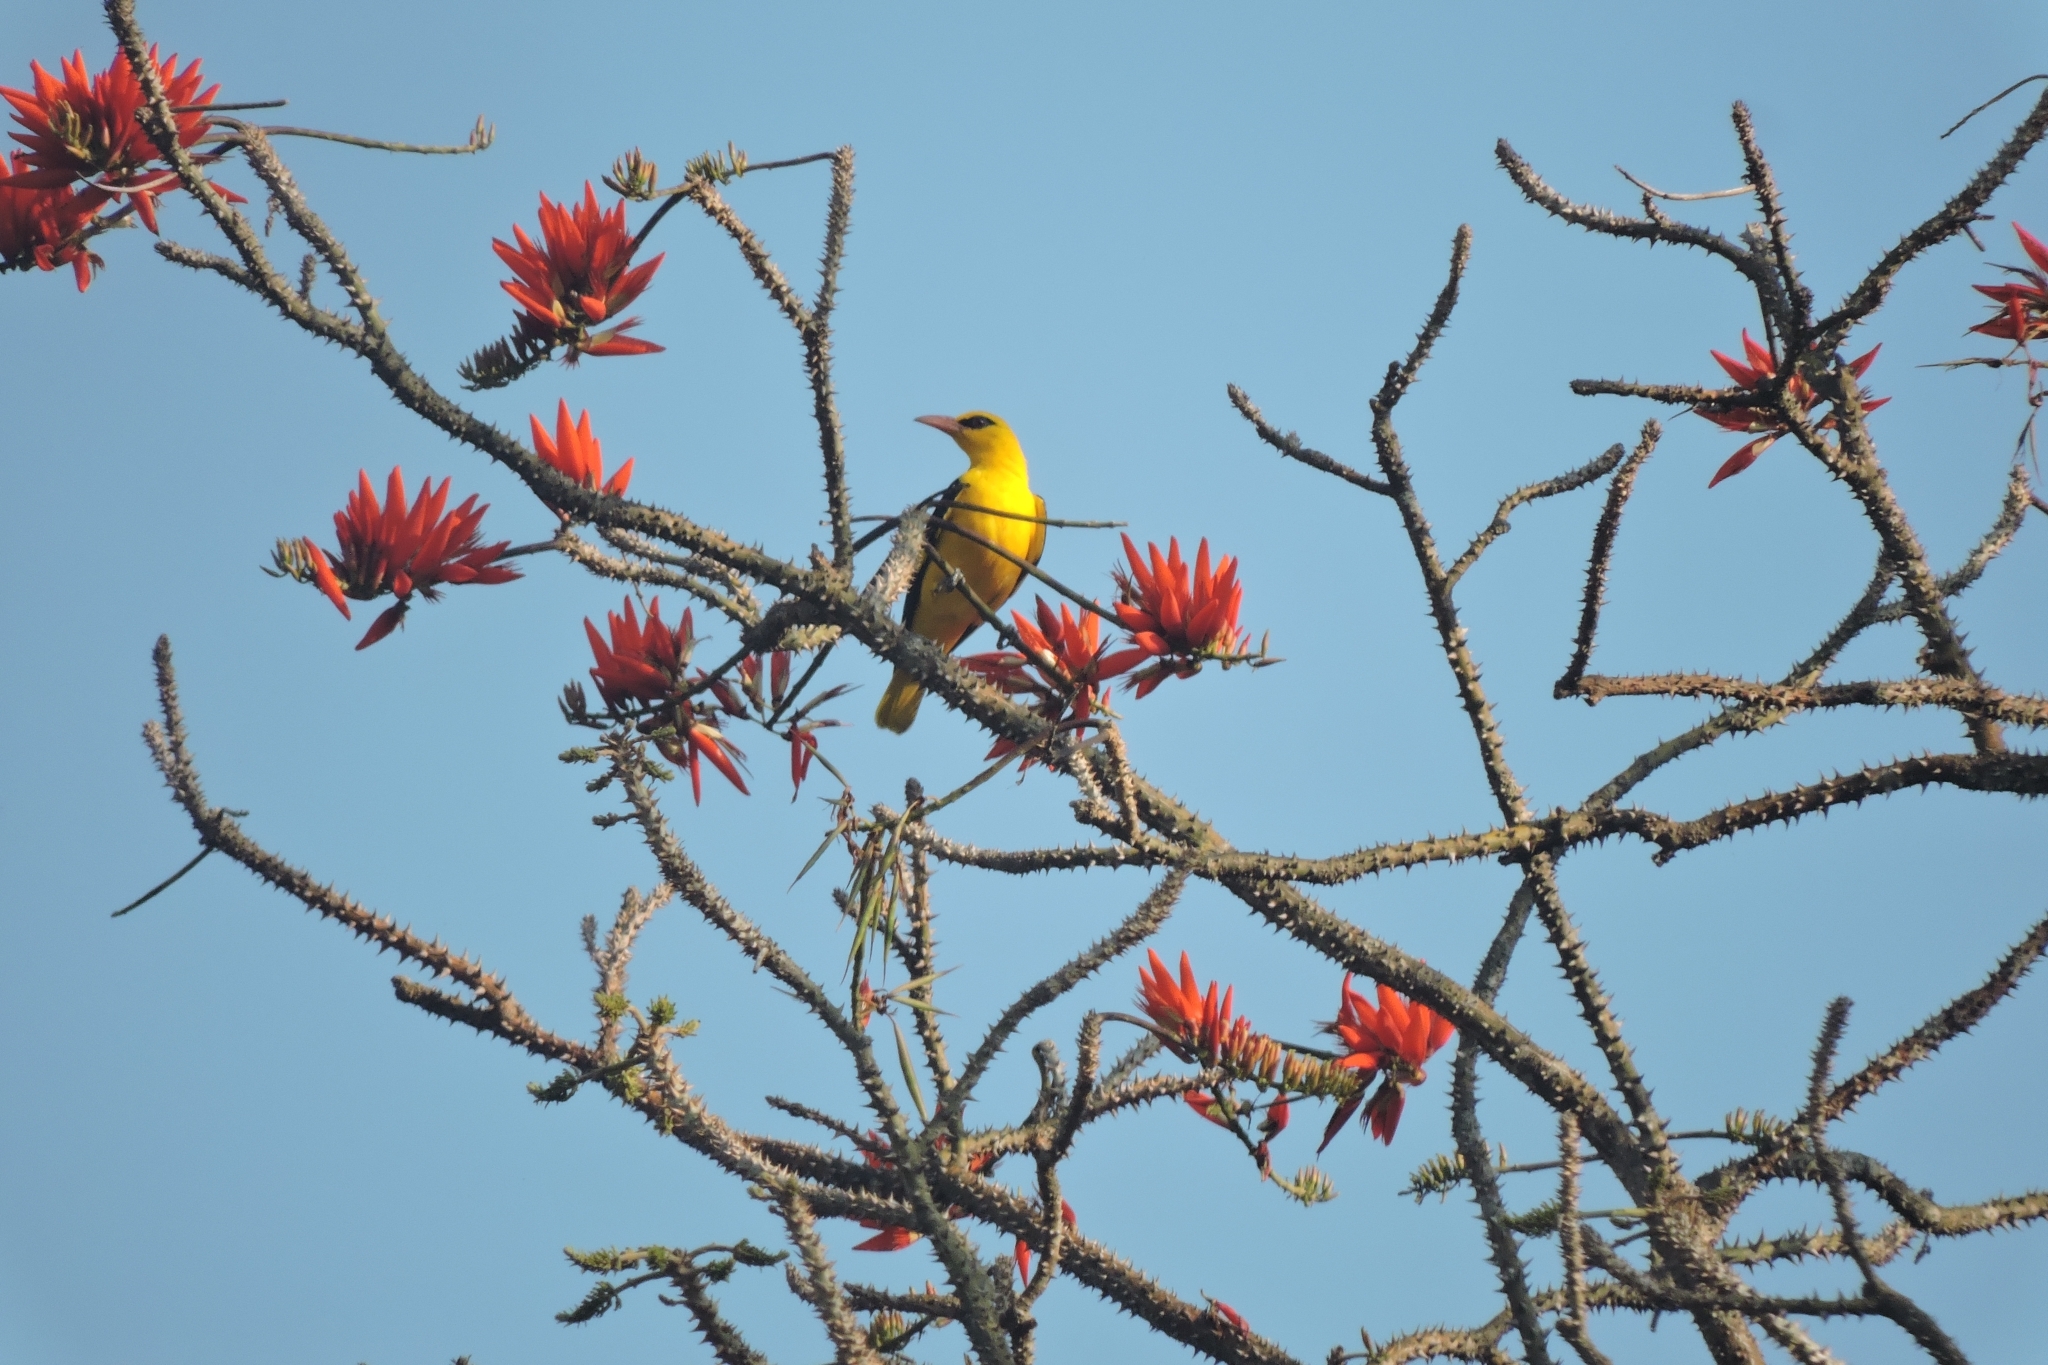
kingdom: Animalia
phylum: Chordata
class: Aves
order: Passeriformes
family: Oriolidae
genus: Oriolus
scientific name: Oriolus kundoo
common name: Indian golden oriole
